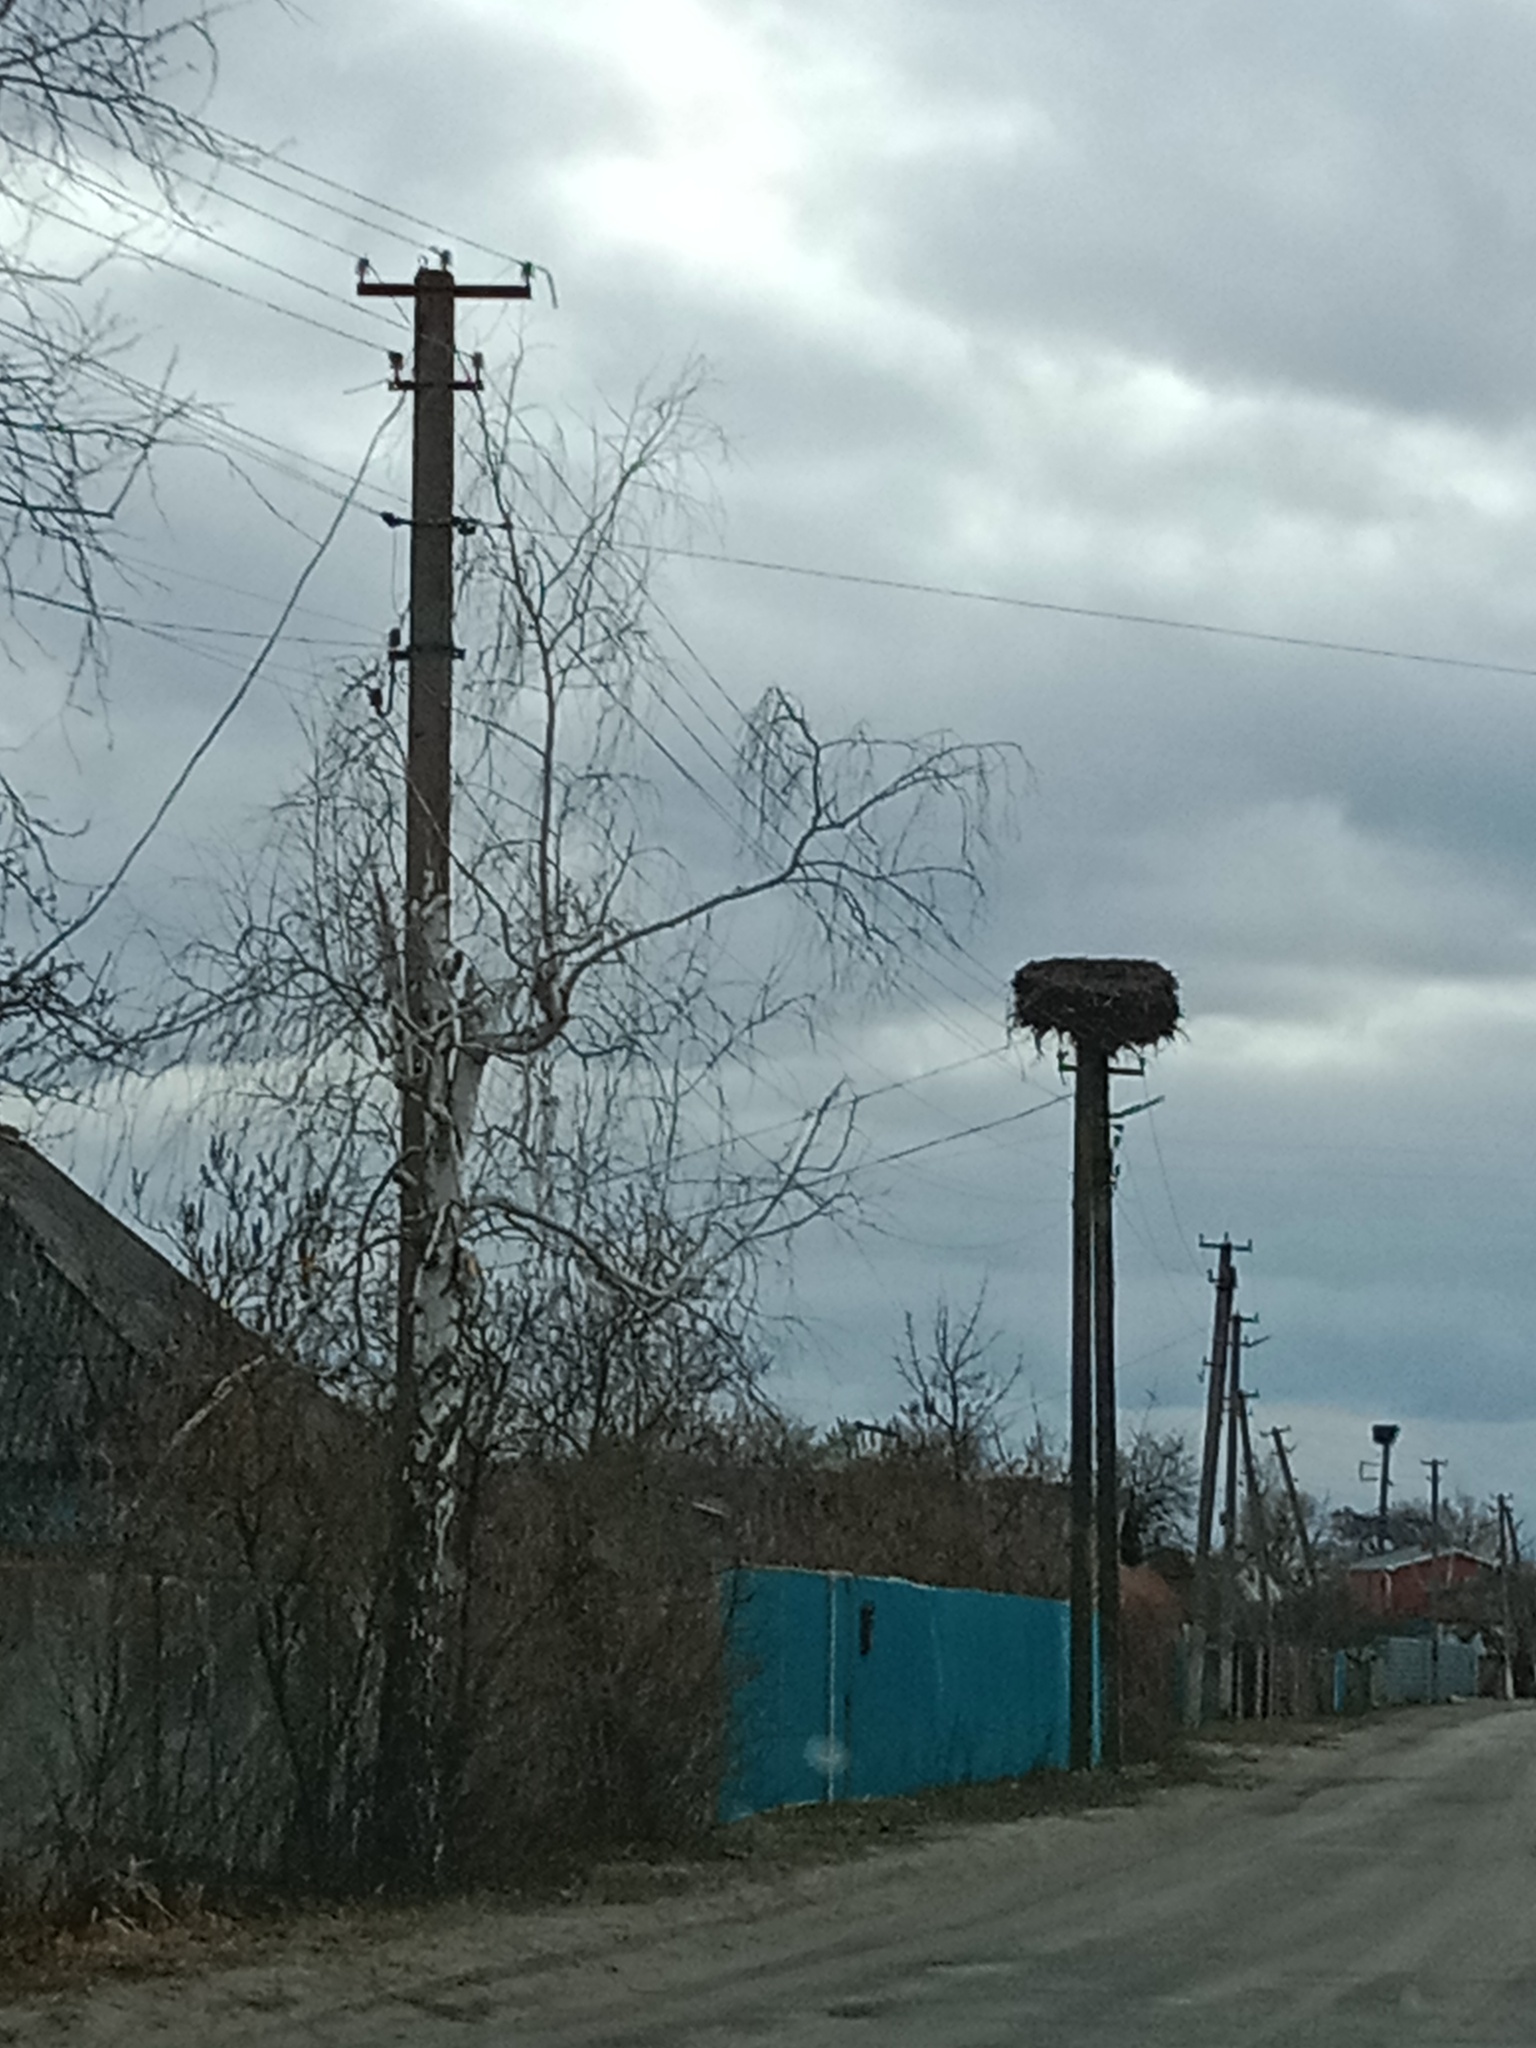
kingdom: Animalia
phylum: Chordata
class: Aves
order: Ciconiiformes
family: Ciconiidae
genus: Ciconia
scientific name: Ciconia ciconia
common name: White stork
